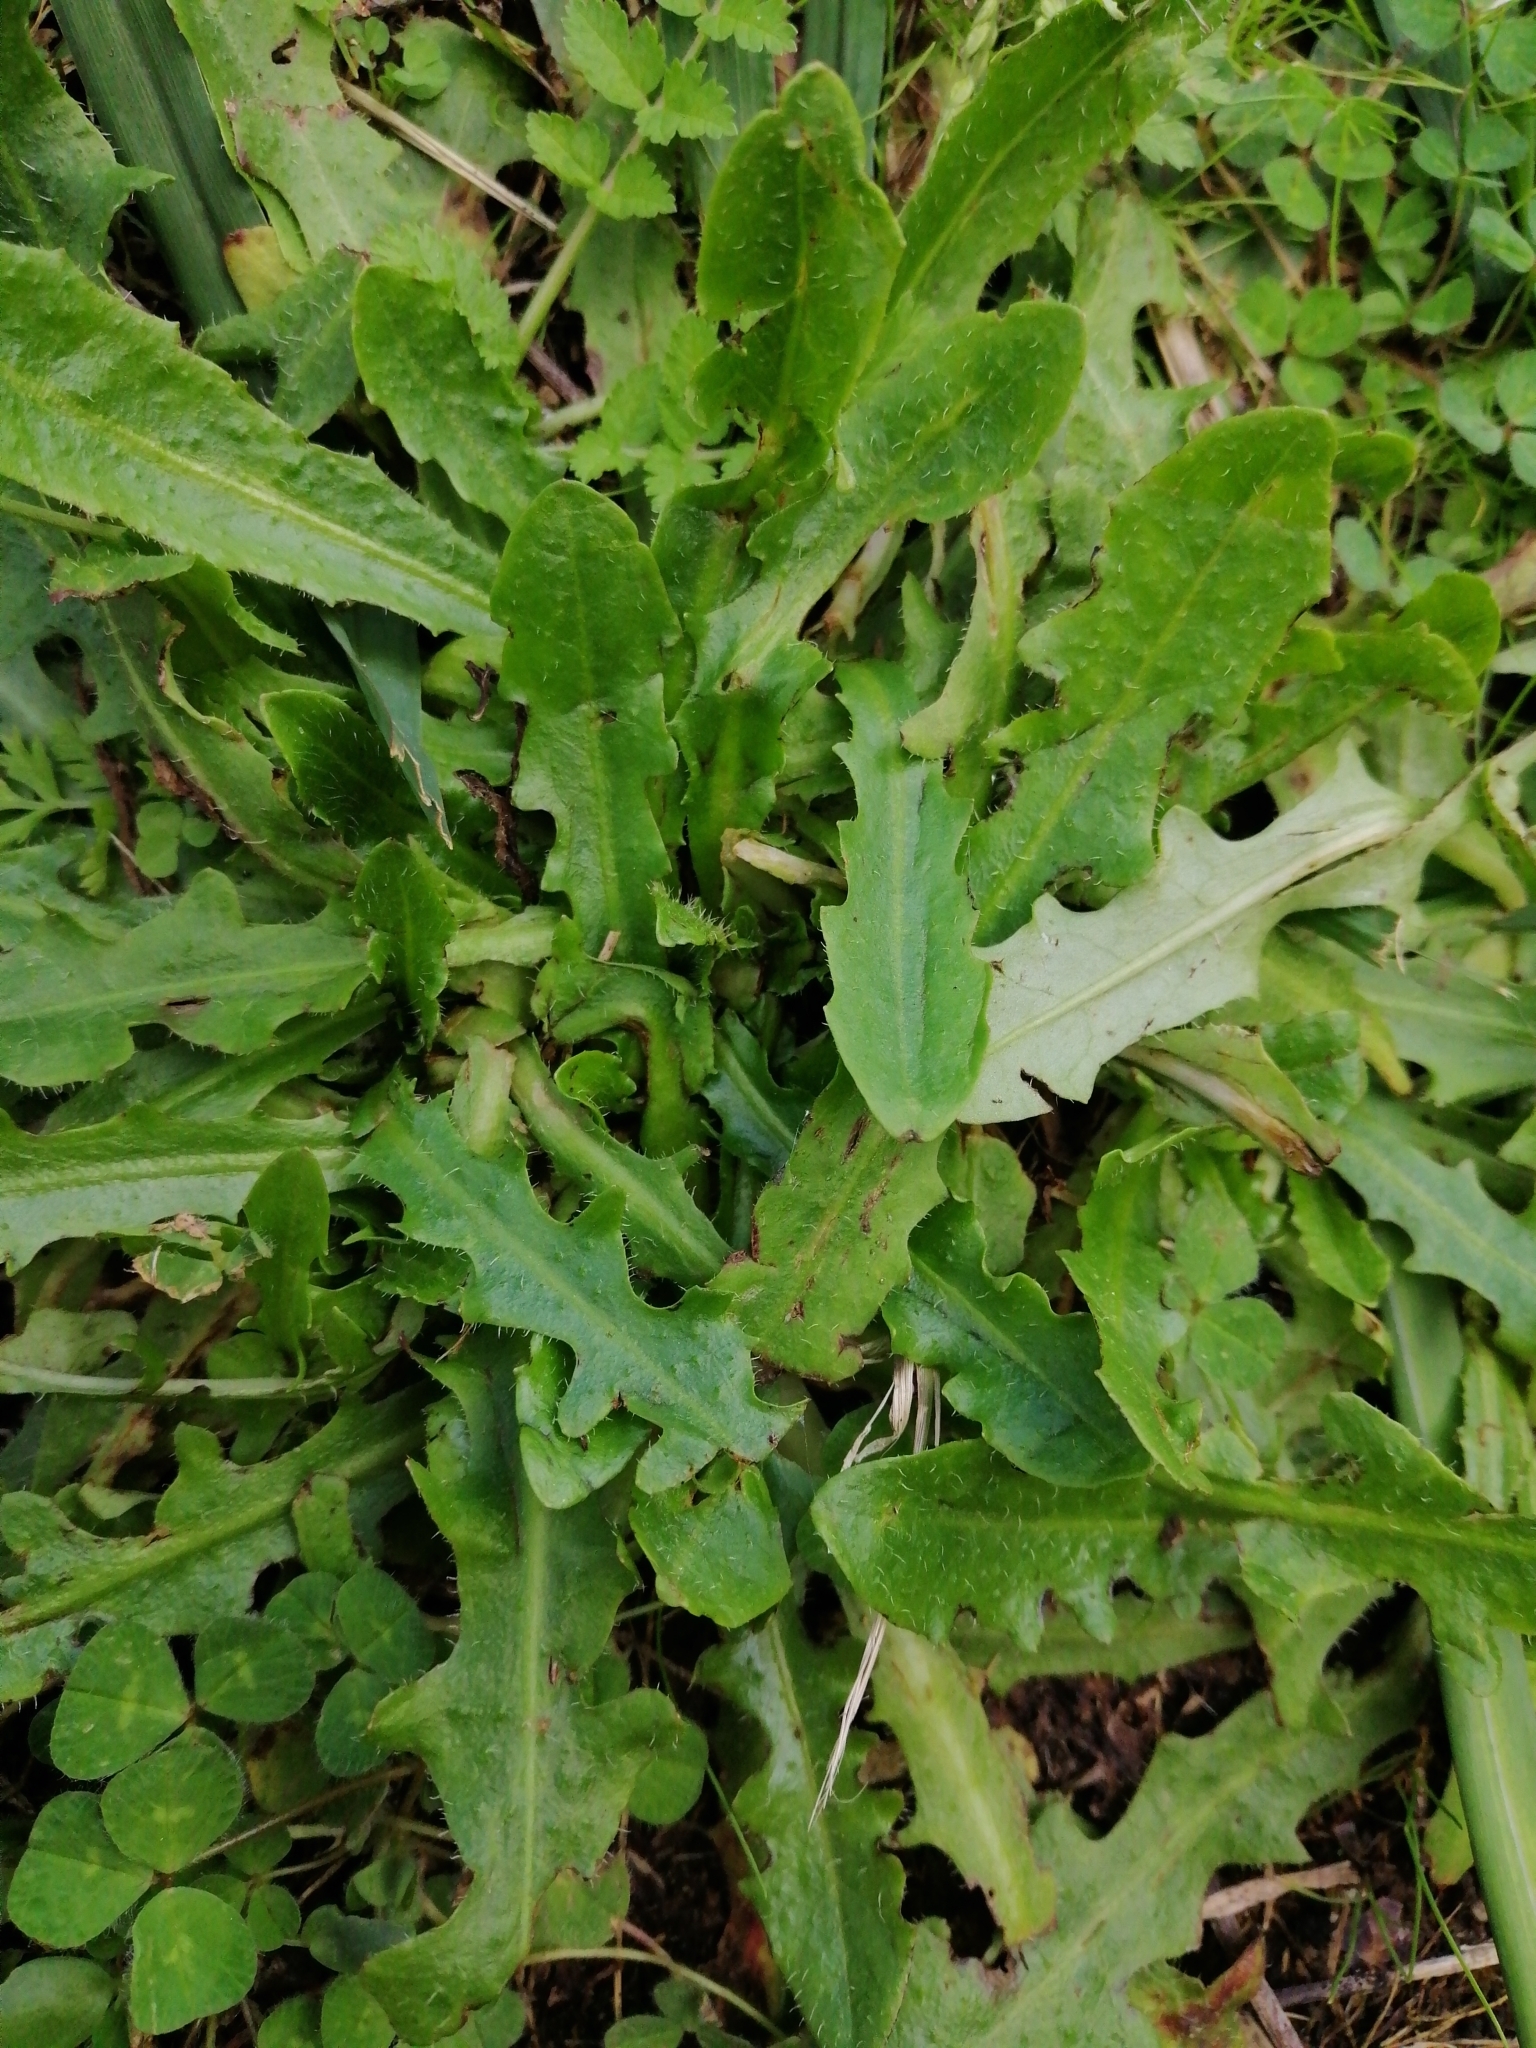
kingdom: Plantae
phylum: Tracheophyta
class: Magnoliopsida
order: Asterales
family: Asteraceae
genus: Hypochaeris
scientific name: Hypochaeris radicata
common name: Flatweed
